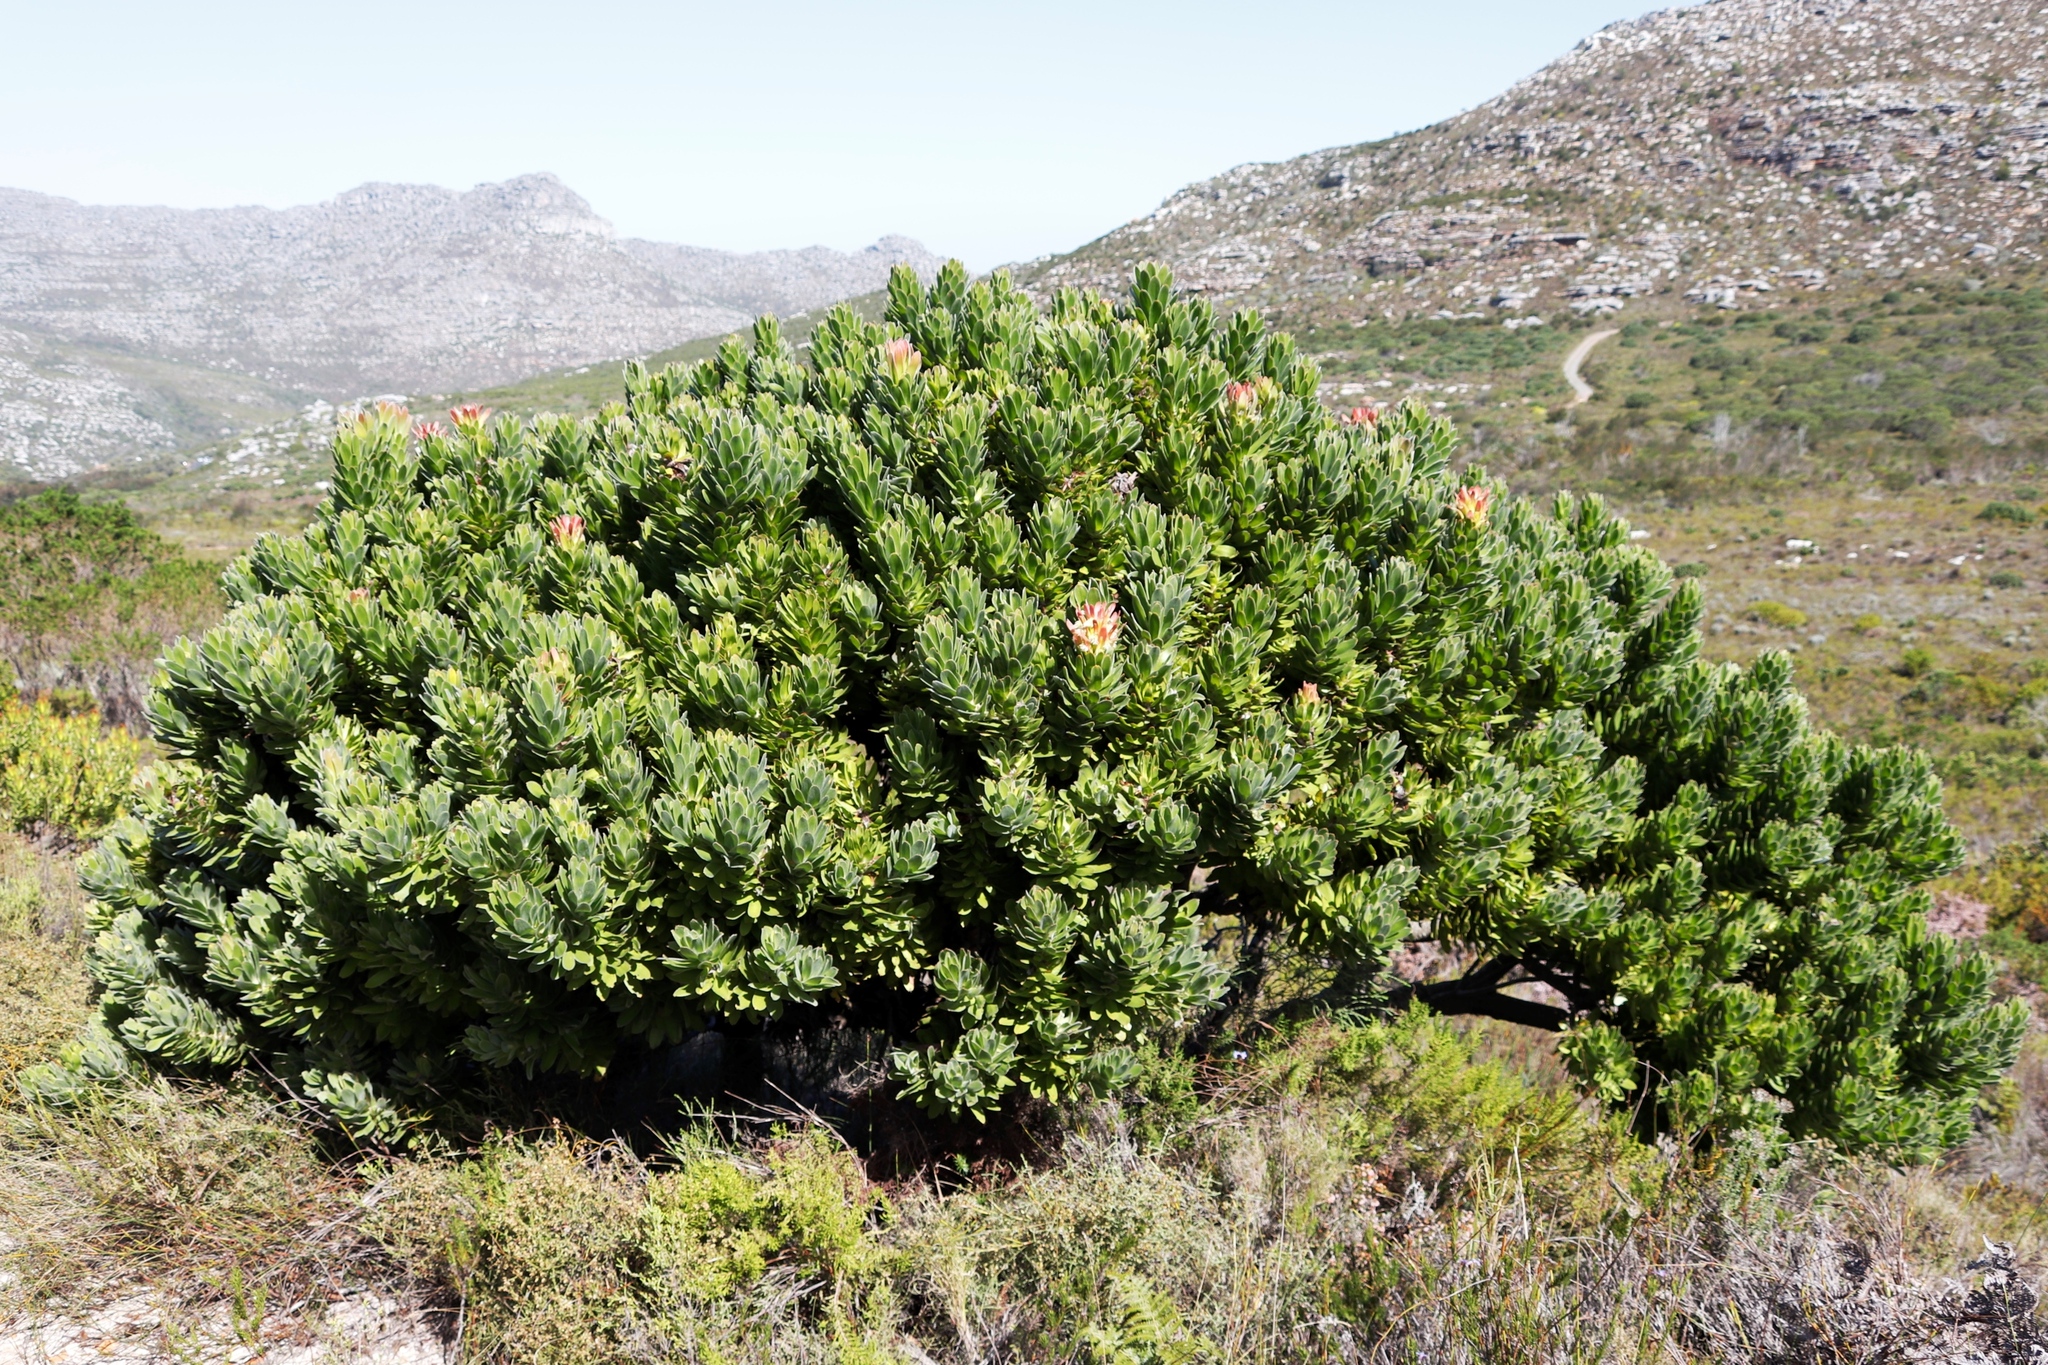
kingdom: Plantae
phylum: Tracheophyta
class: Magnoliopsida
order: Proteales
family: Proteaceae
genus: Mimetes
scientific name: Mimetes fimbriifolius
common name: Fringed bottlebrush
